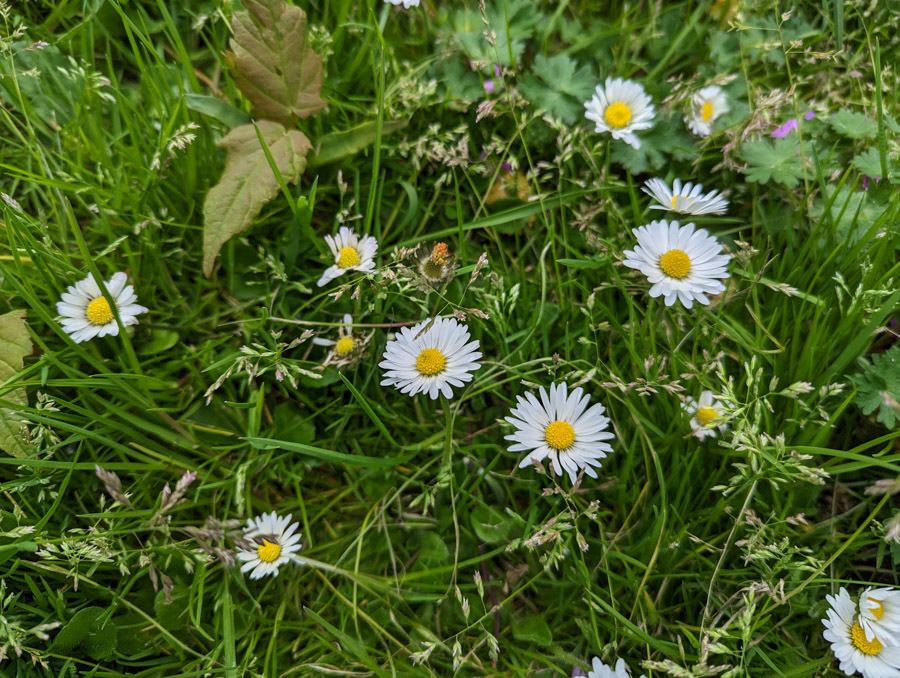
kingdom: Plantae
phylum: Tracheophyta
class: Magnoliopsida
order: Asterales
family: Asteraceae
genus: Bellis
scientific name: Bellis perennis
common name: Lawndaisy
